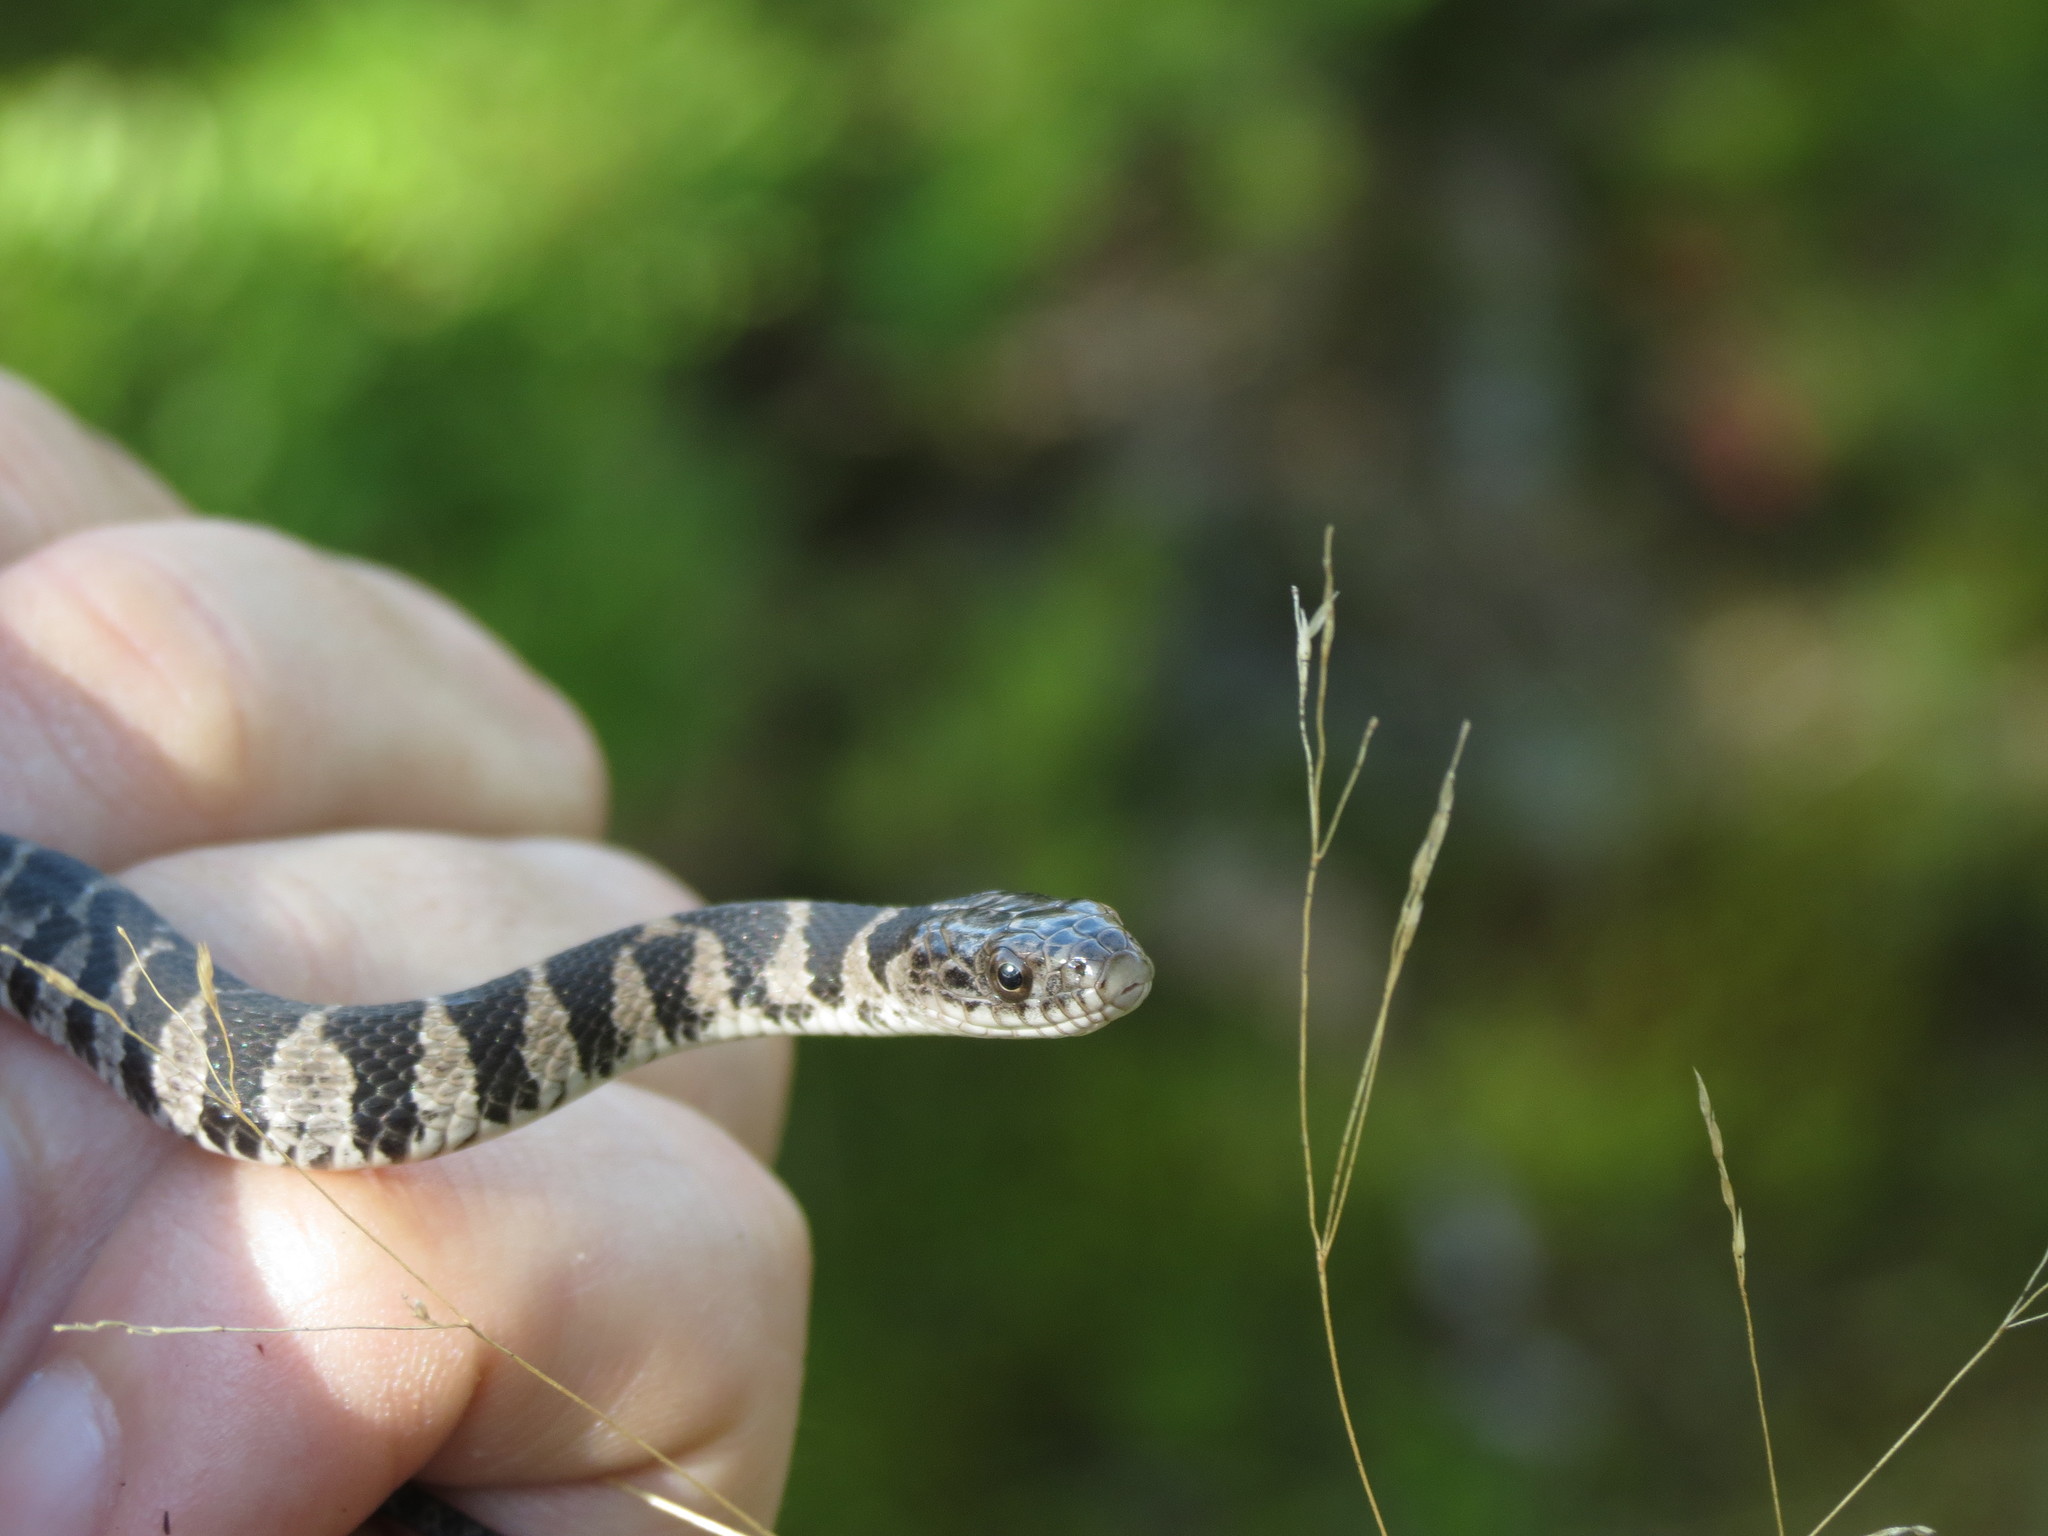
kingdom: Animalia
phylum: Chordata
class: Squamata
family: Colubridae
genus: Nerodia
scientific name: Nerodia sipedon
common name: Northern water snake
